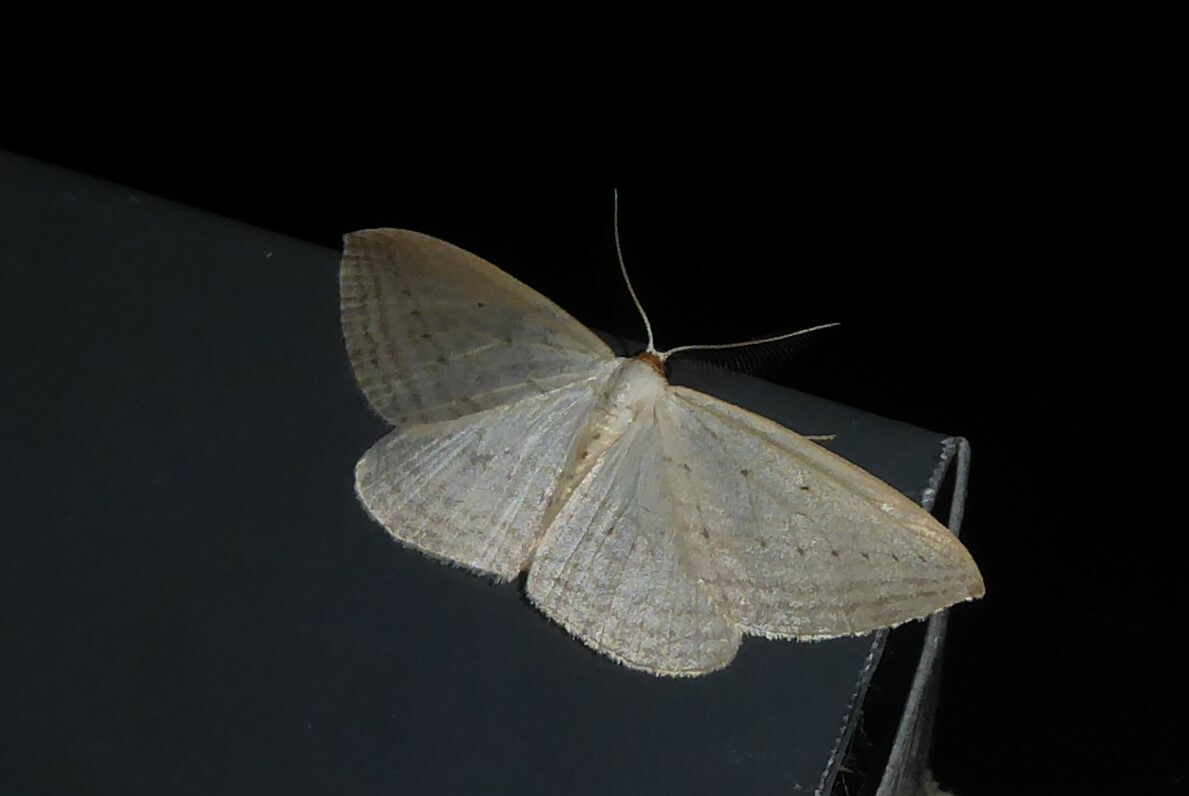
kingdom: Animalia
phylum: Arthropoda
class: Insecta
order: Lepidoptera
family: Geometridae
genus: Orthoclydon
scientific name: Orthoclydon praefectata
